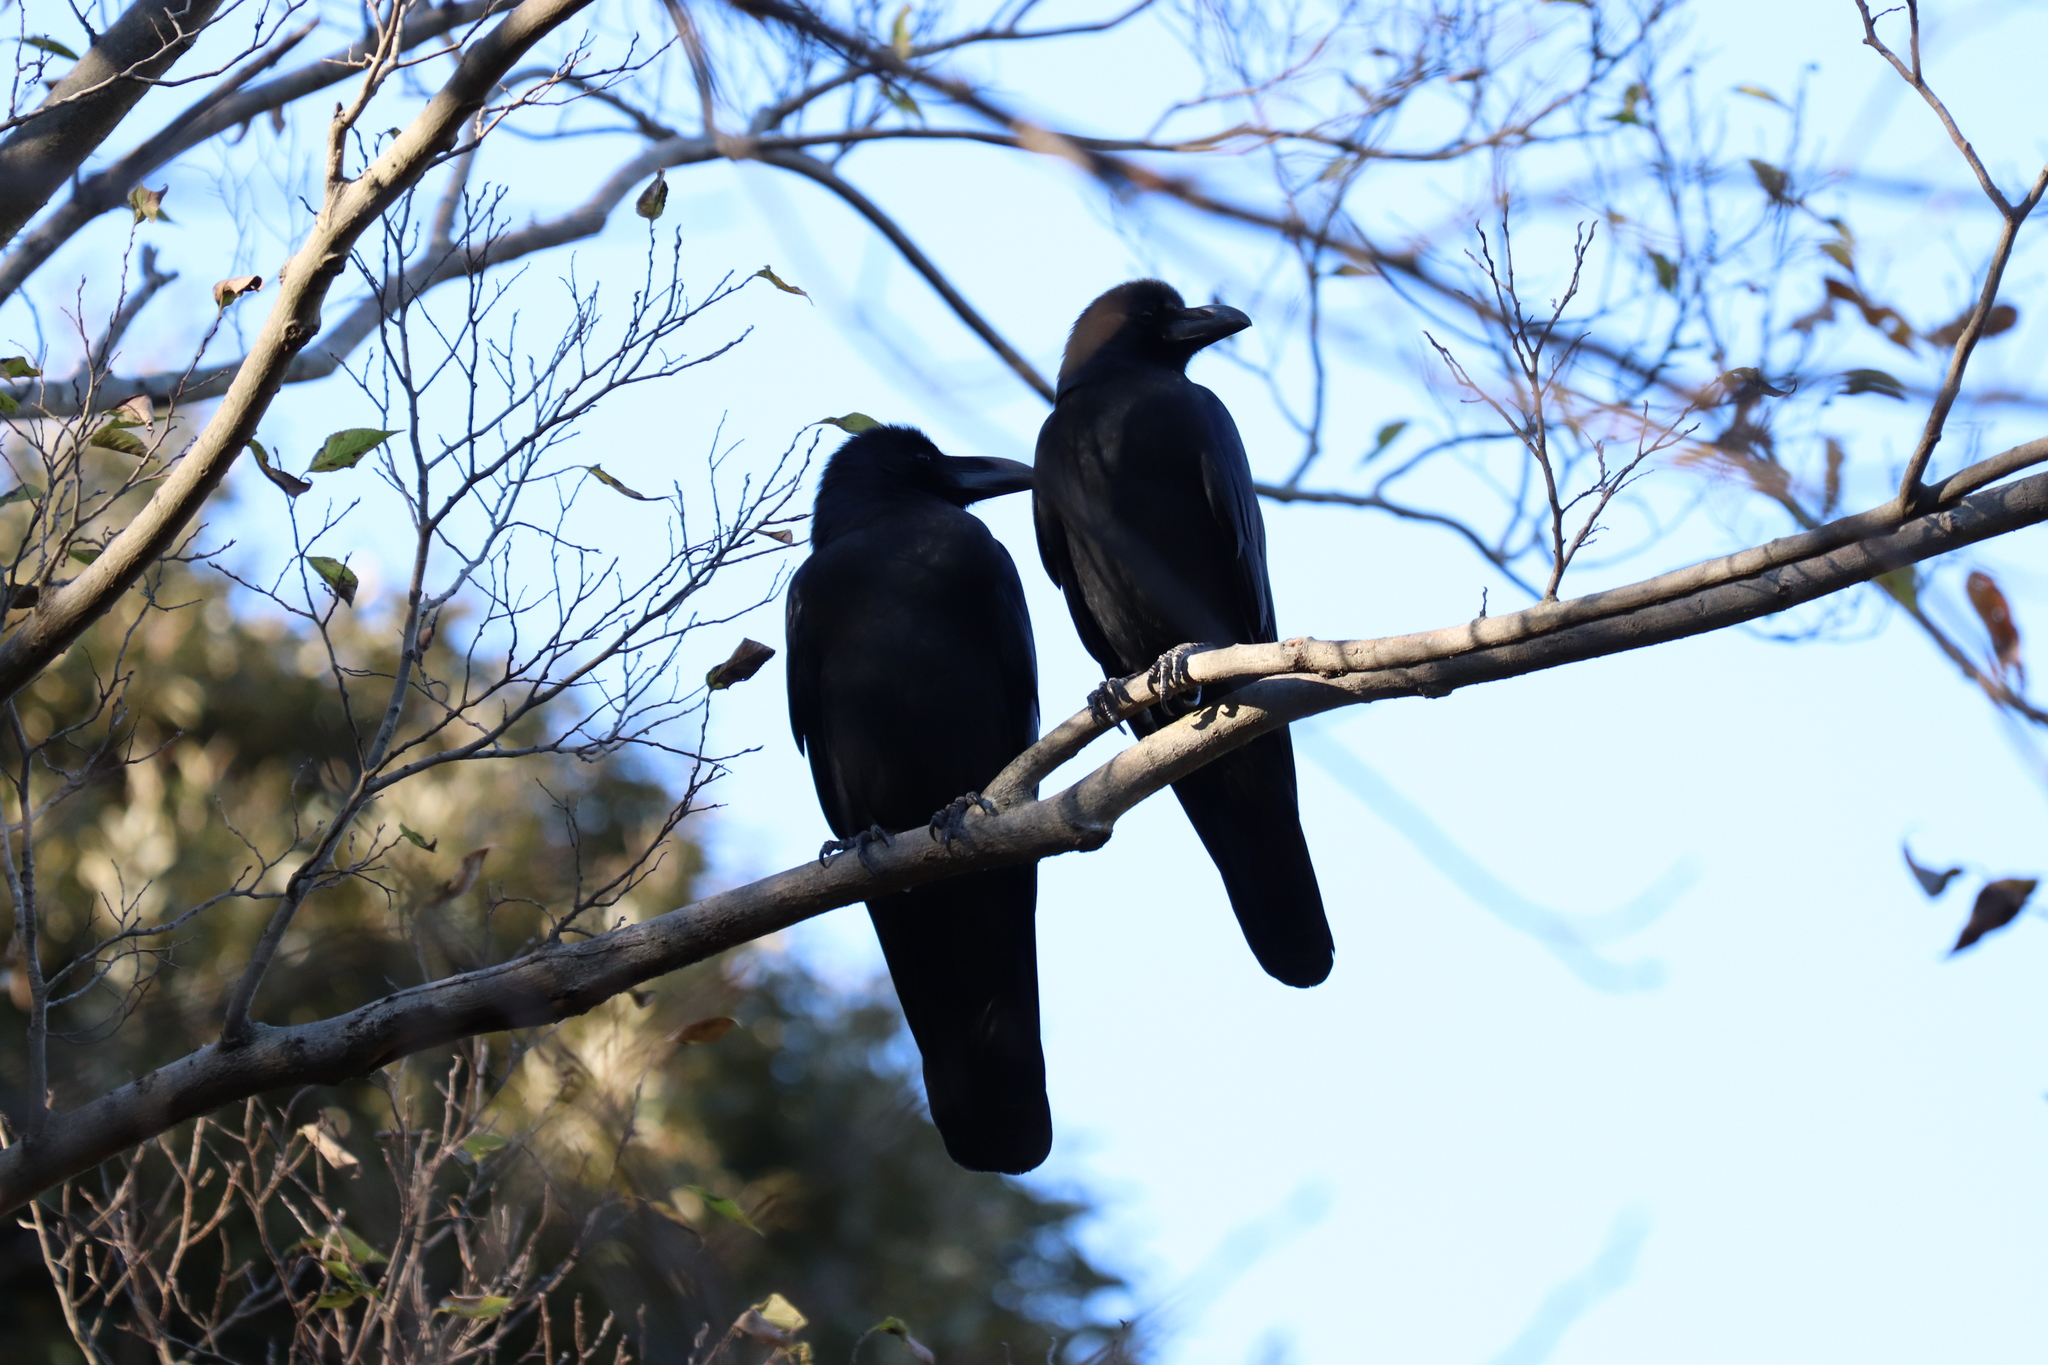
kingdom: Animalia
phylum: Chordata
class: Aves
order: Passeriformes
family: Corvidae
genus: Corvus
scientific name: Corvus macrorhynchos
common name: Large-billed crow
